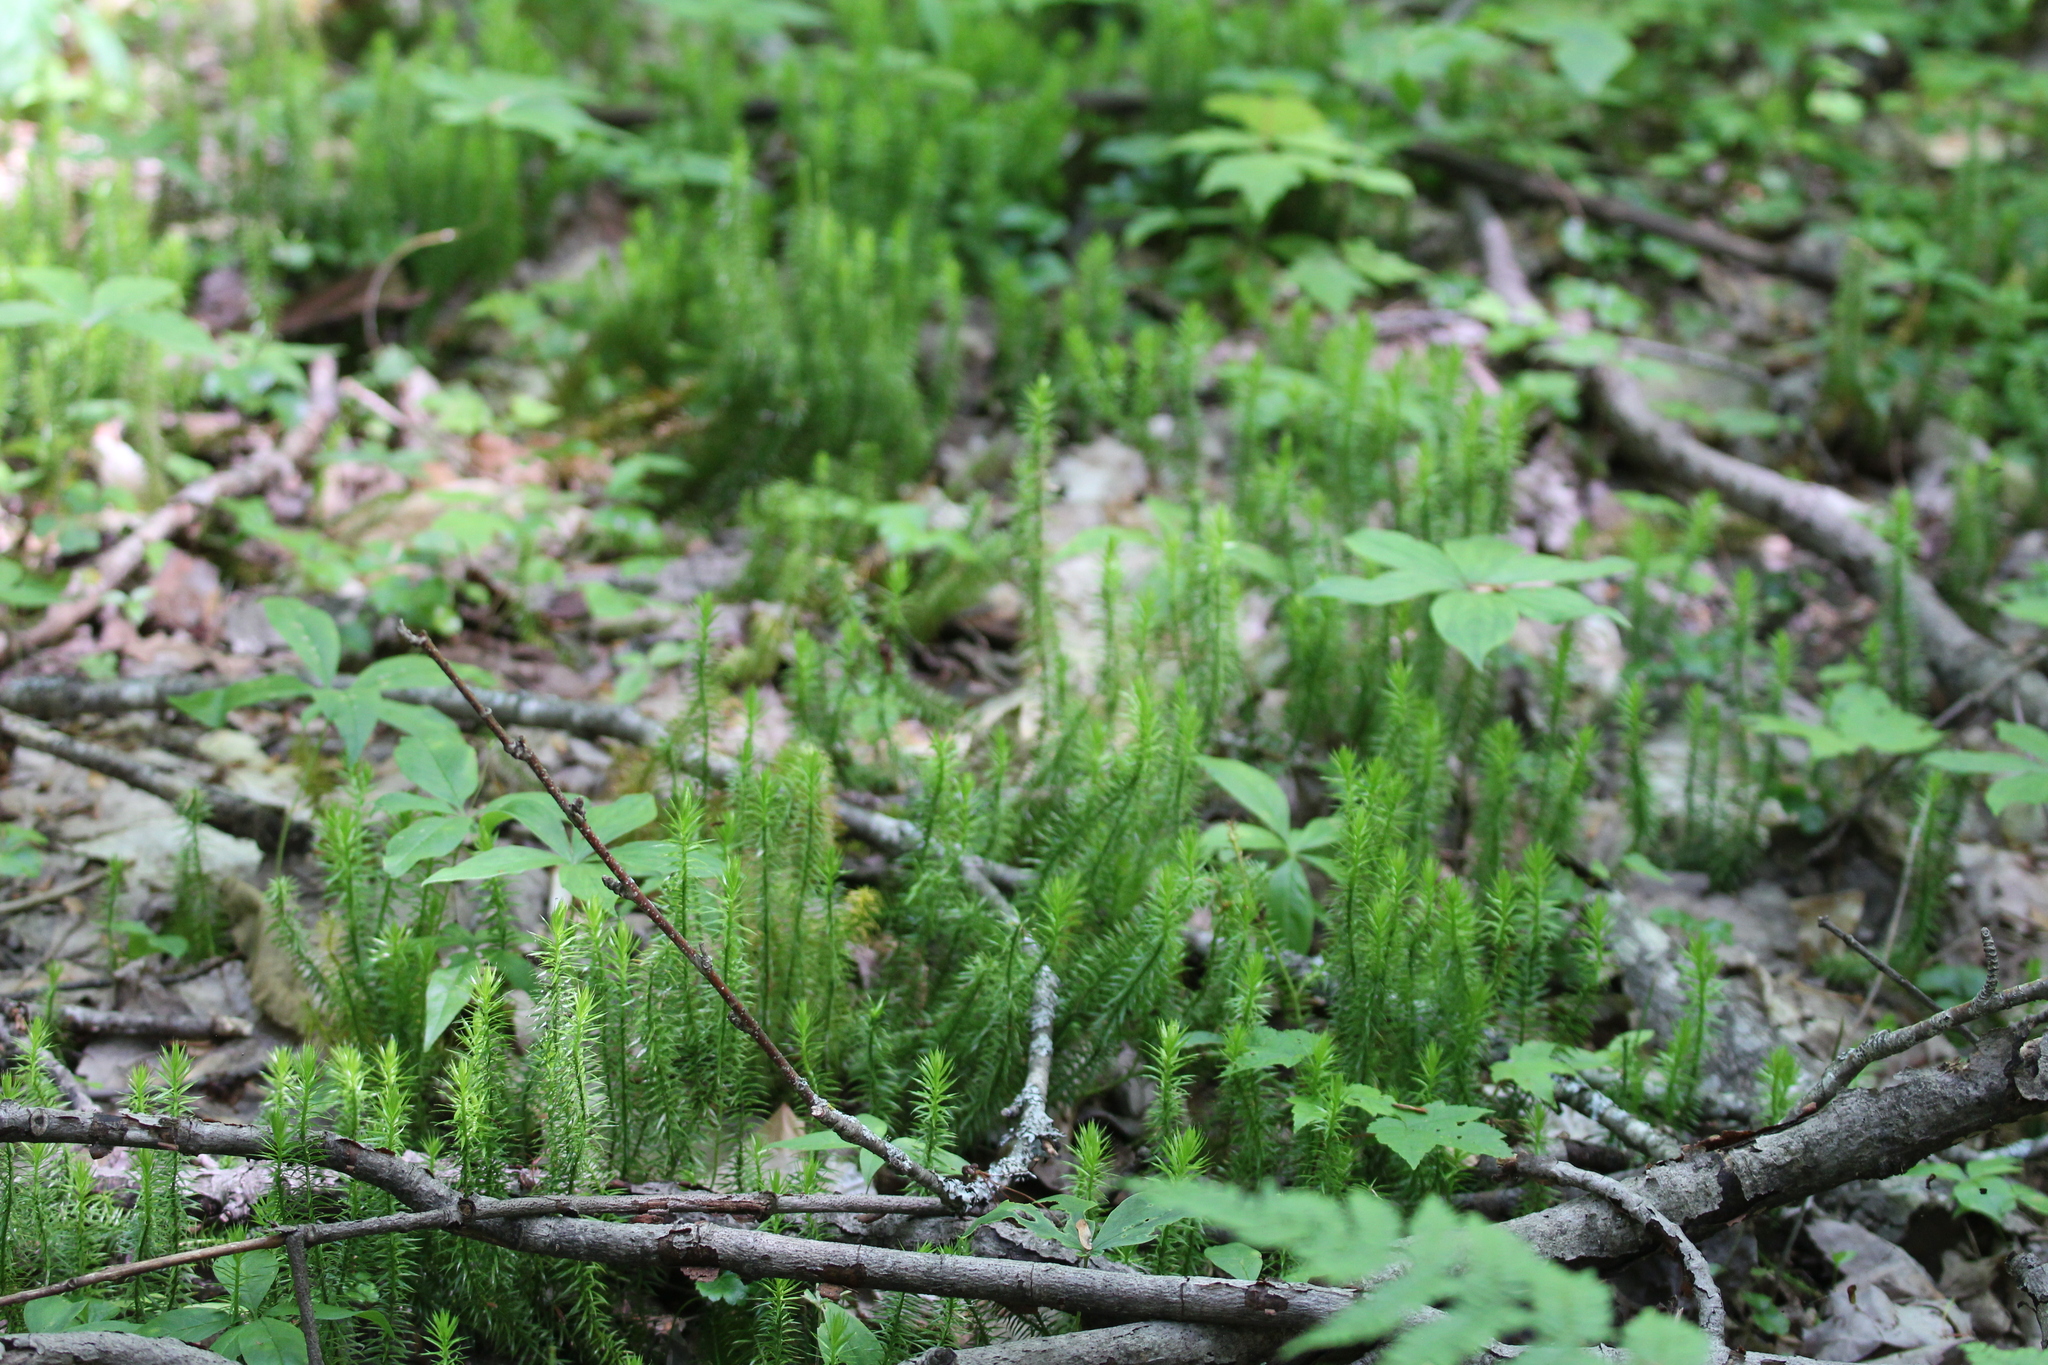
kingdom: Plantae
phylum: Tracheophyta
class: Lycopodiopsida
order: Lycopodiales
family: Lycopodiaceae
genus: Spinulum
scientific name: Spinulum annotinum
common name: Interrupted club-moss
